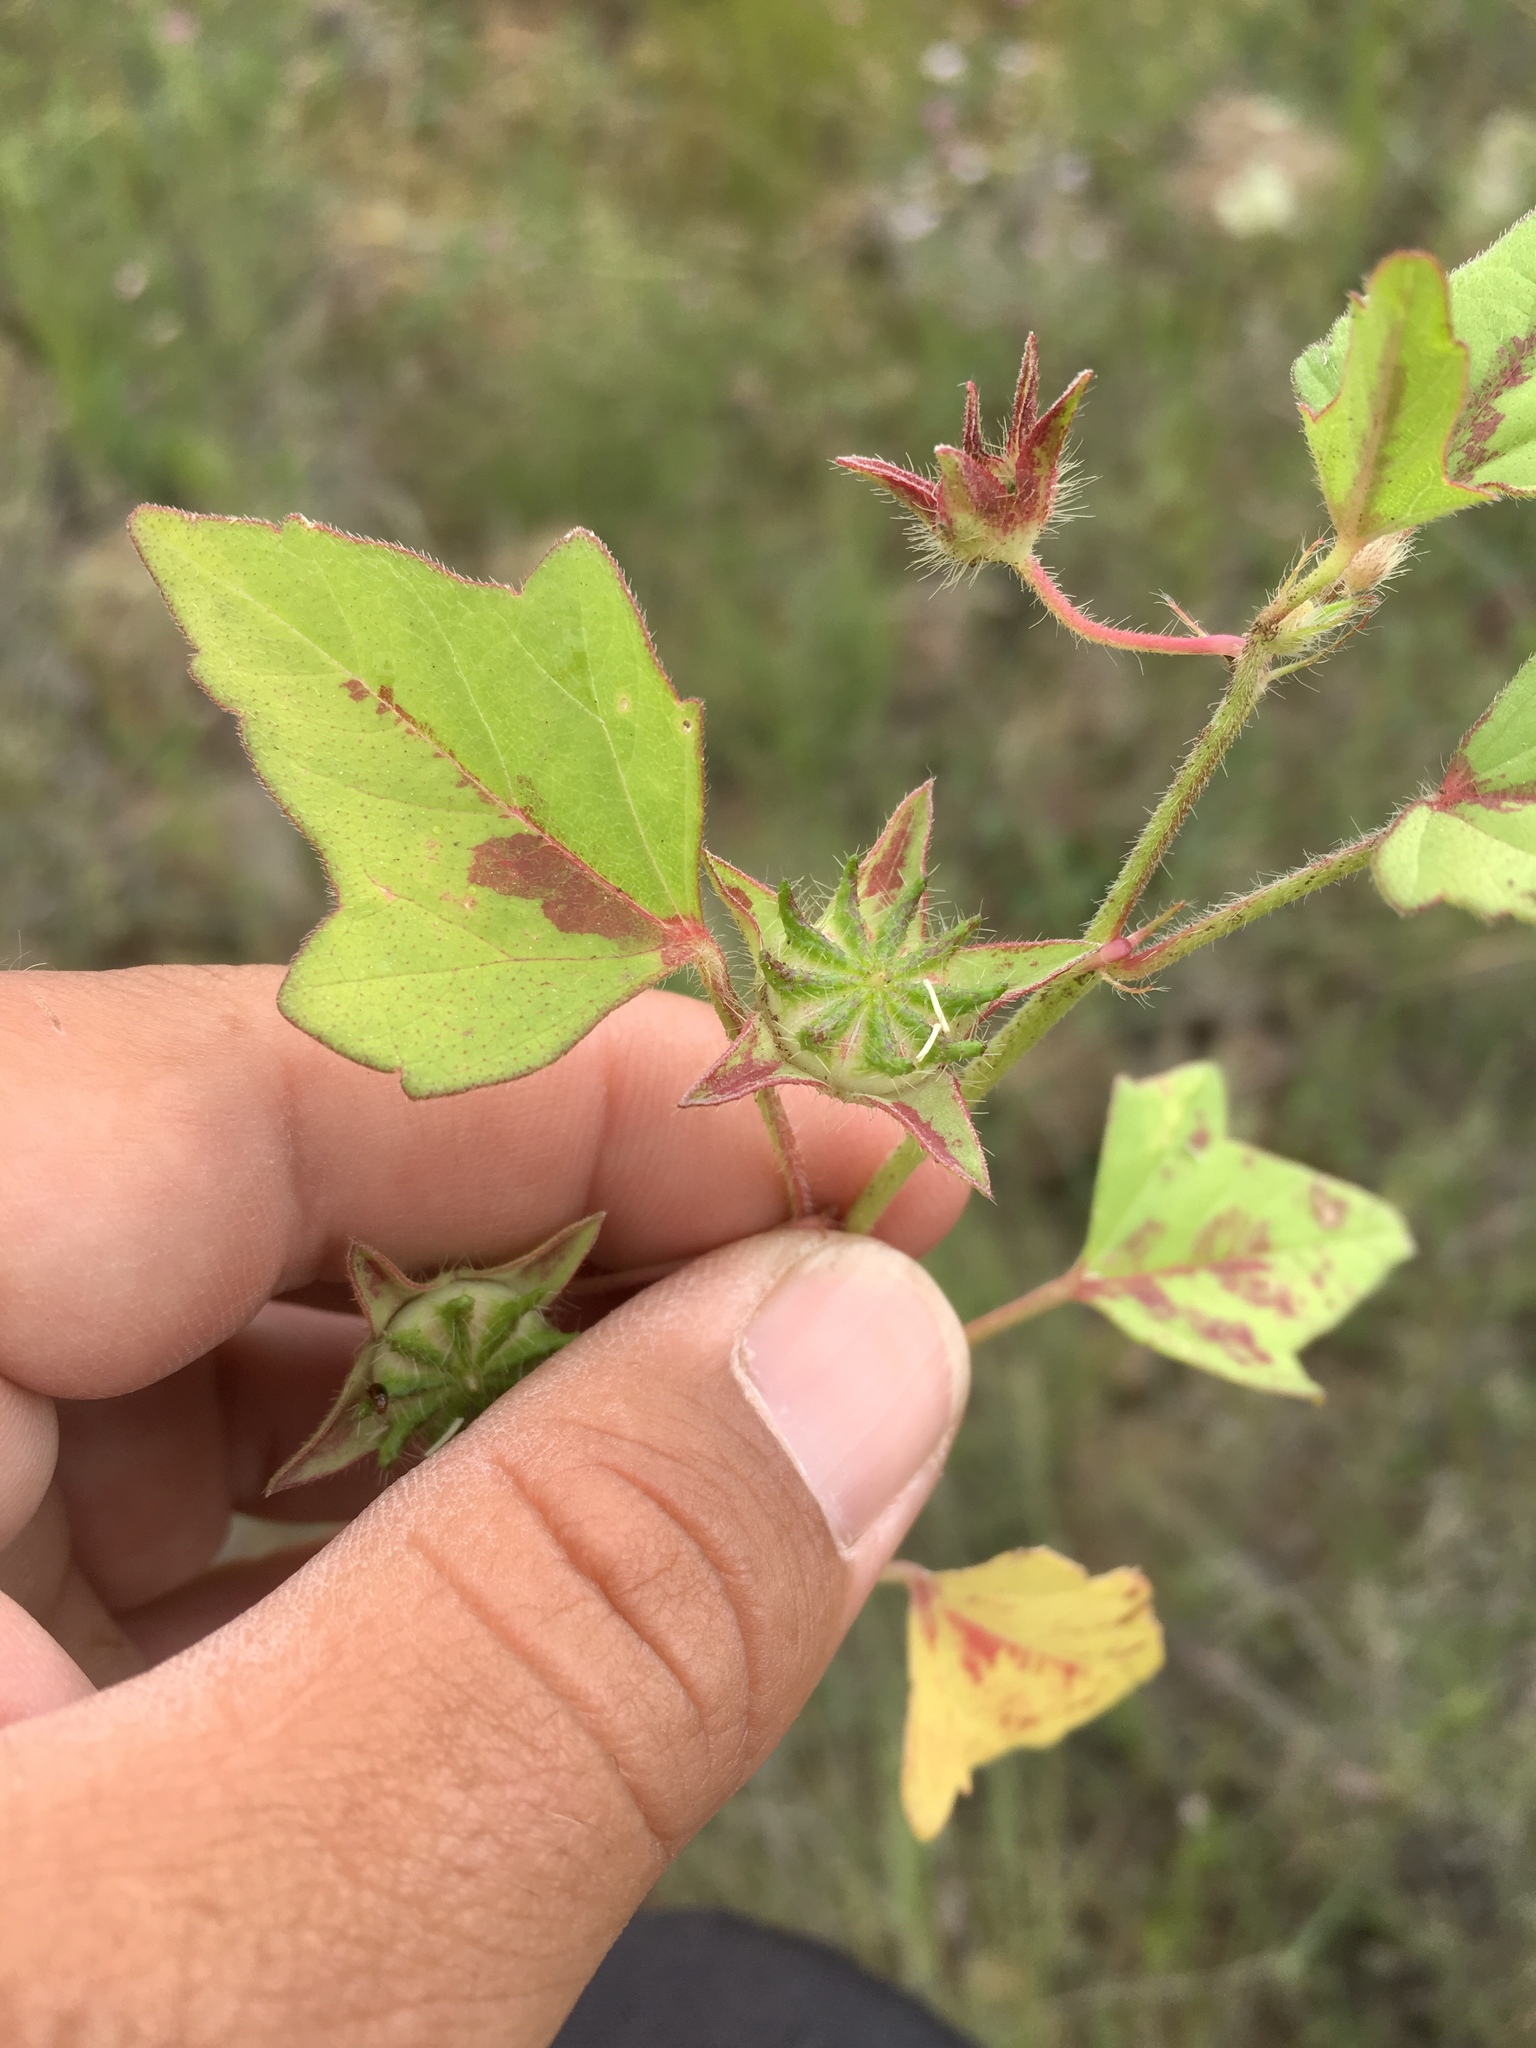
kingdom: Plantae
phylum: Tracheophyta
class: Magnoliopsida
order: Malvales
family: Malvaceae
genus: Anoda
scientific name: Anoda cristata
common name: Spurred anoda
